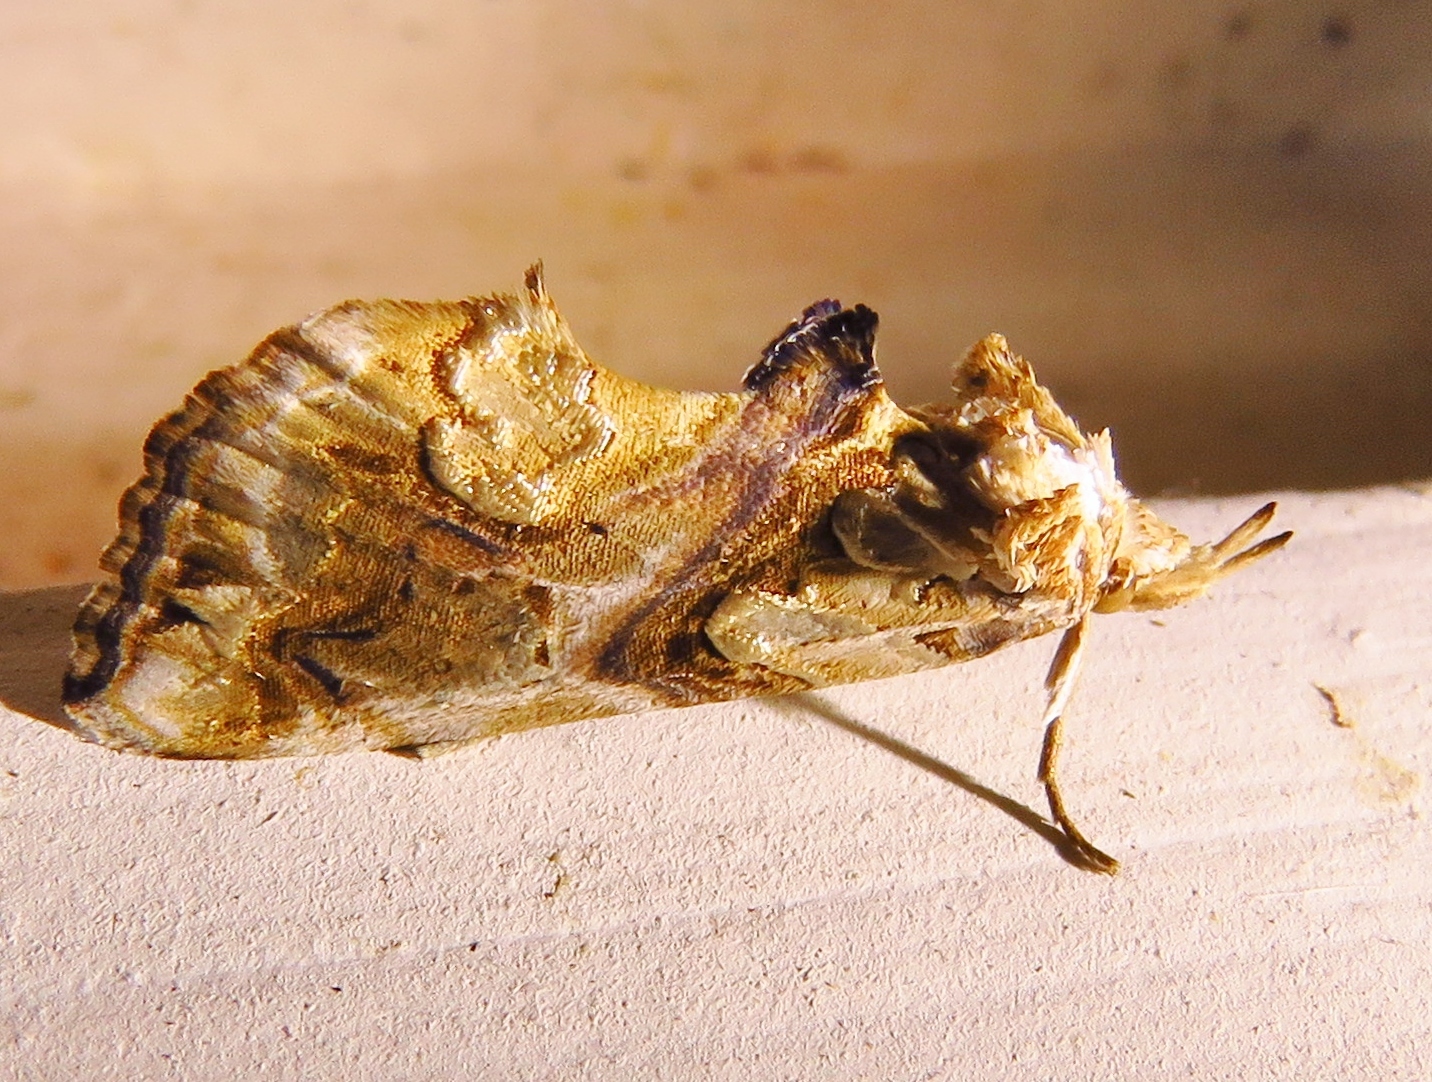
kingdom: Animalia
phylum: Arthropoda
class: Insecta
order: Lepidoptera
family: Erebidae
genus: Plusiodonta
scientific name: Plusiodonta compressipalpis
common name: Moonseed moth
